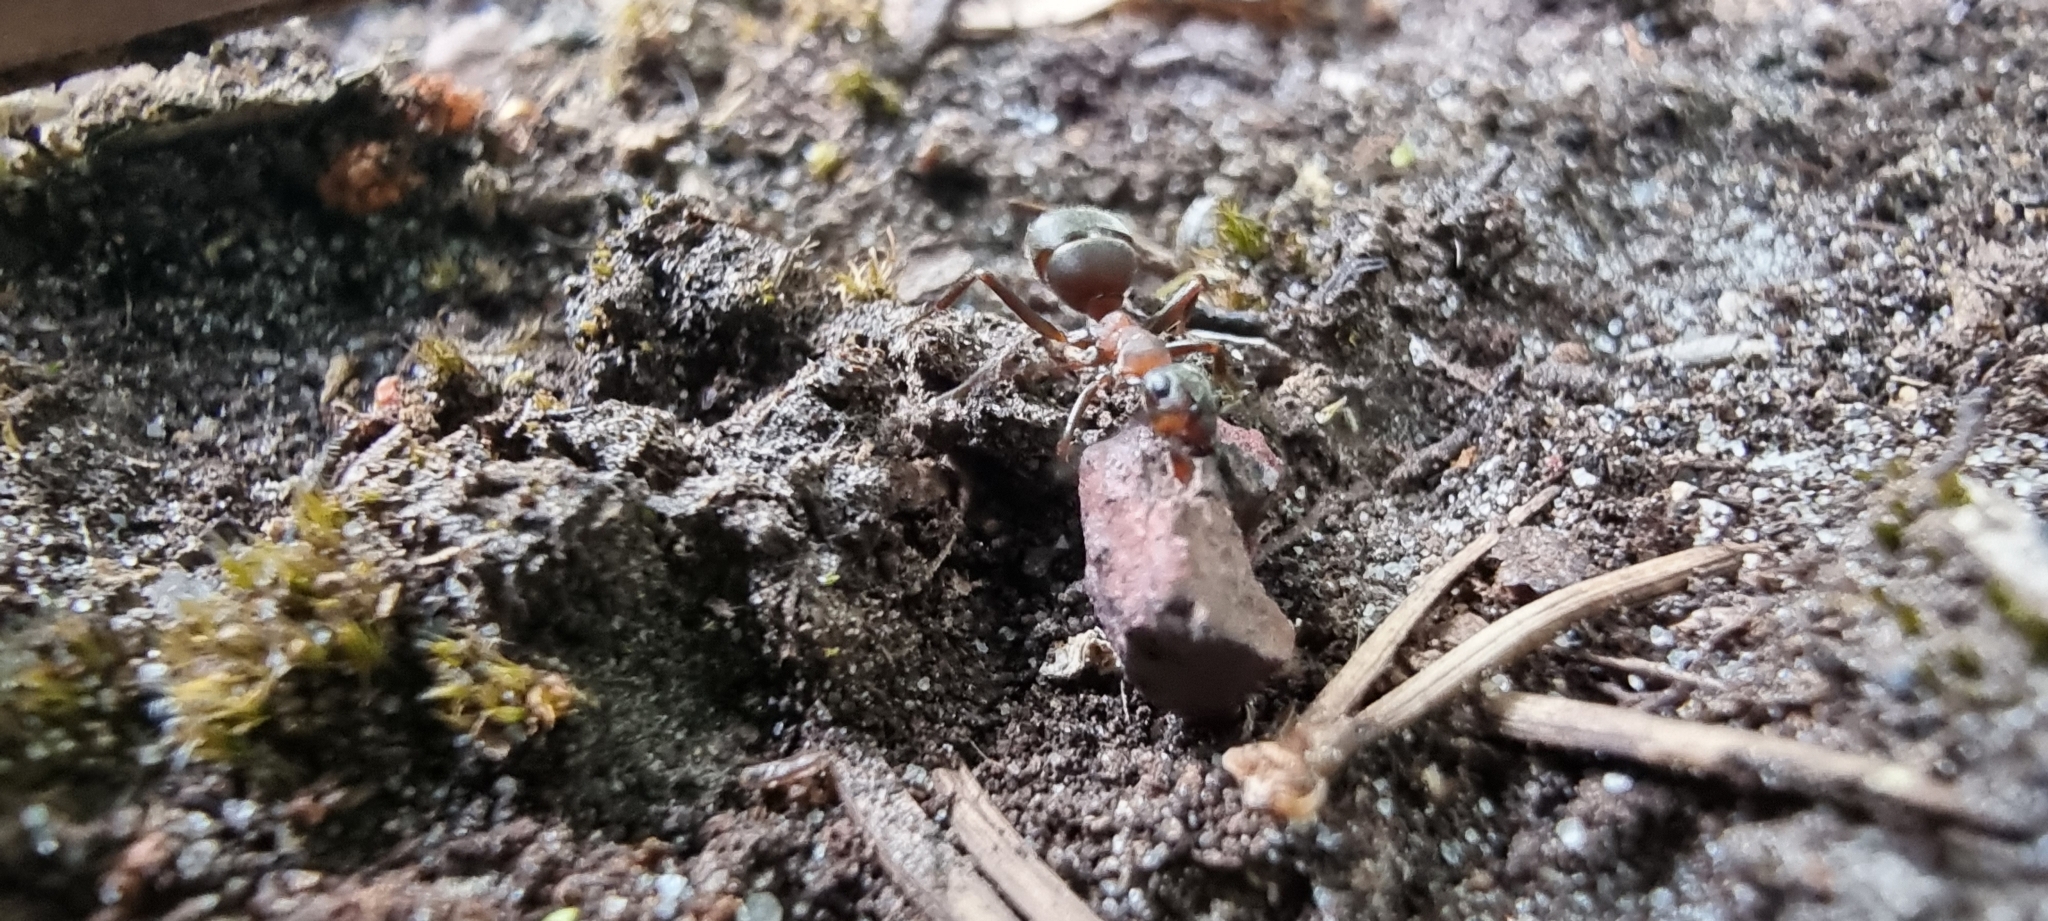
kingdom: Animalia
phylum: Arthropoda
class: Insecta
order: Hymenoptera
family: Formicidae
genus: Formica
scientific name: Formica
